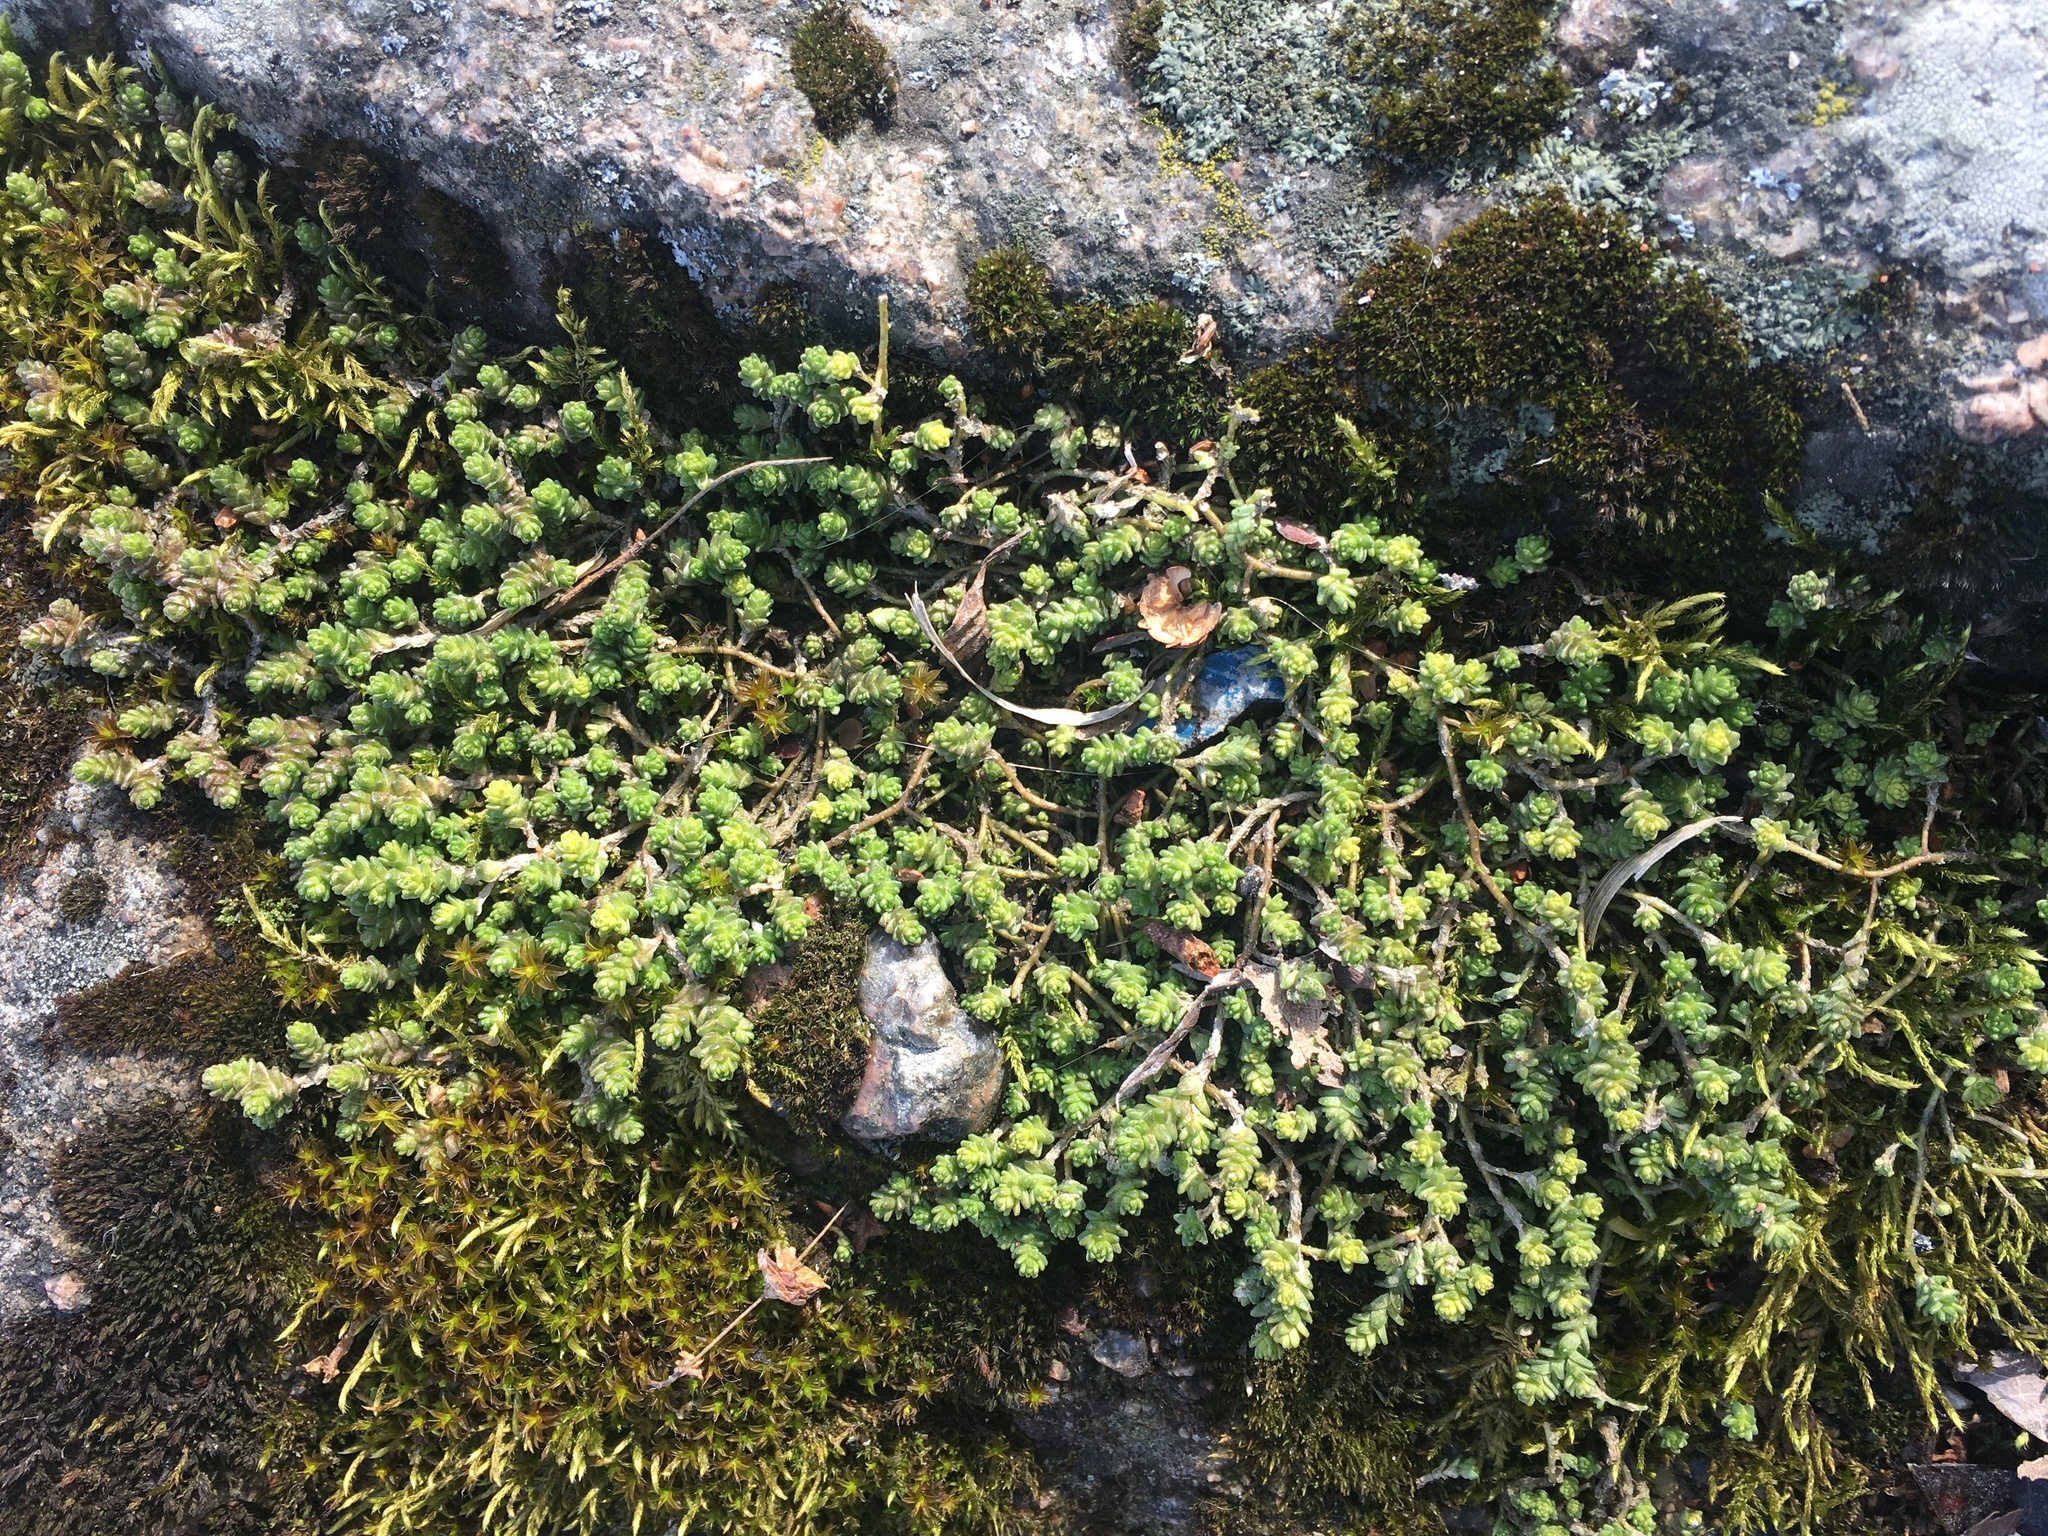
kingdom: Plantae
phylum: Tracheophyta
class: Magnoliopsida
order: Saxifragales
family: Crassulaceae
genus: Sedum
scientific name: Sedum acre
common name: Biting stonecrop
